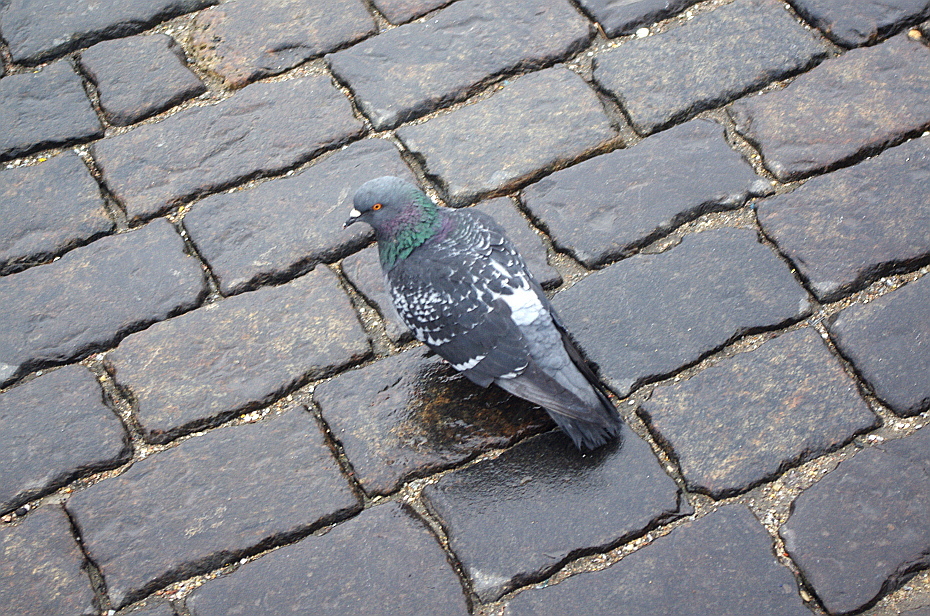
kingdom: Animalia
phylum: Chordata
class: Aves
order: Columbiformes
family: Columbidae
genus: Columba
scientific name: Columba livia
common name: Rock pigeon
